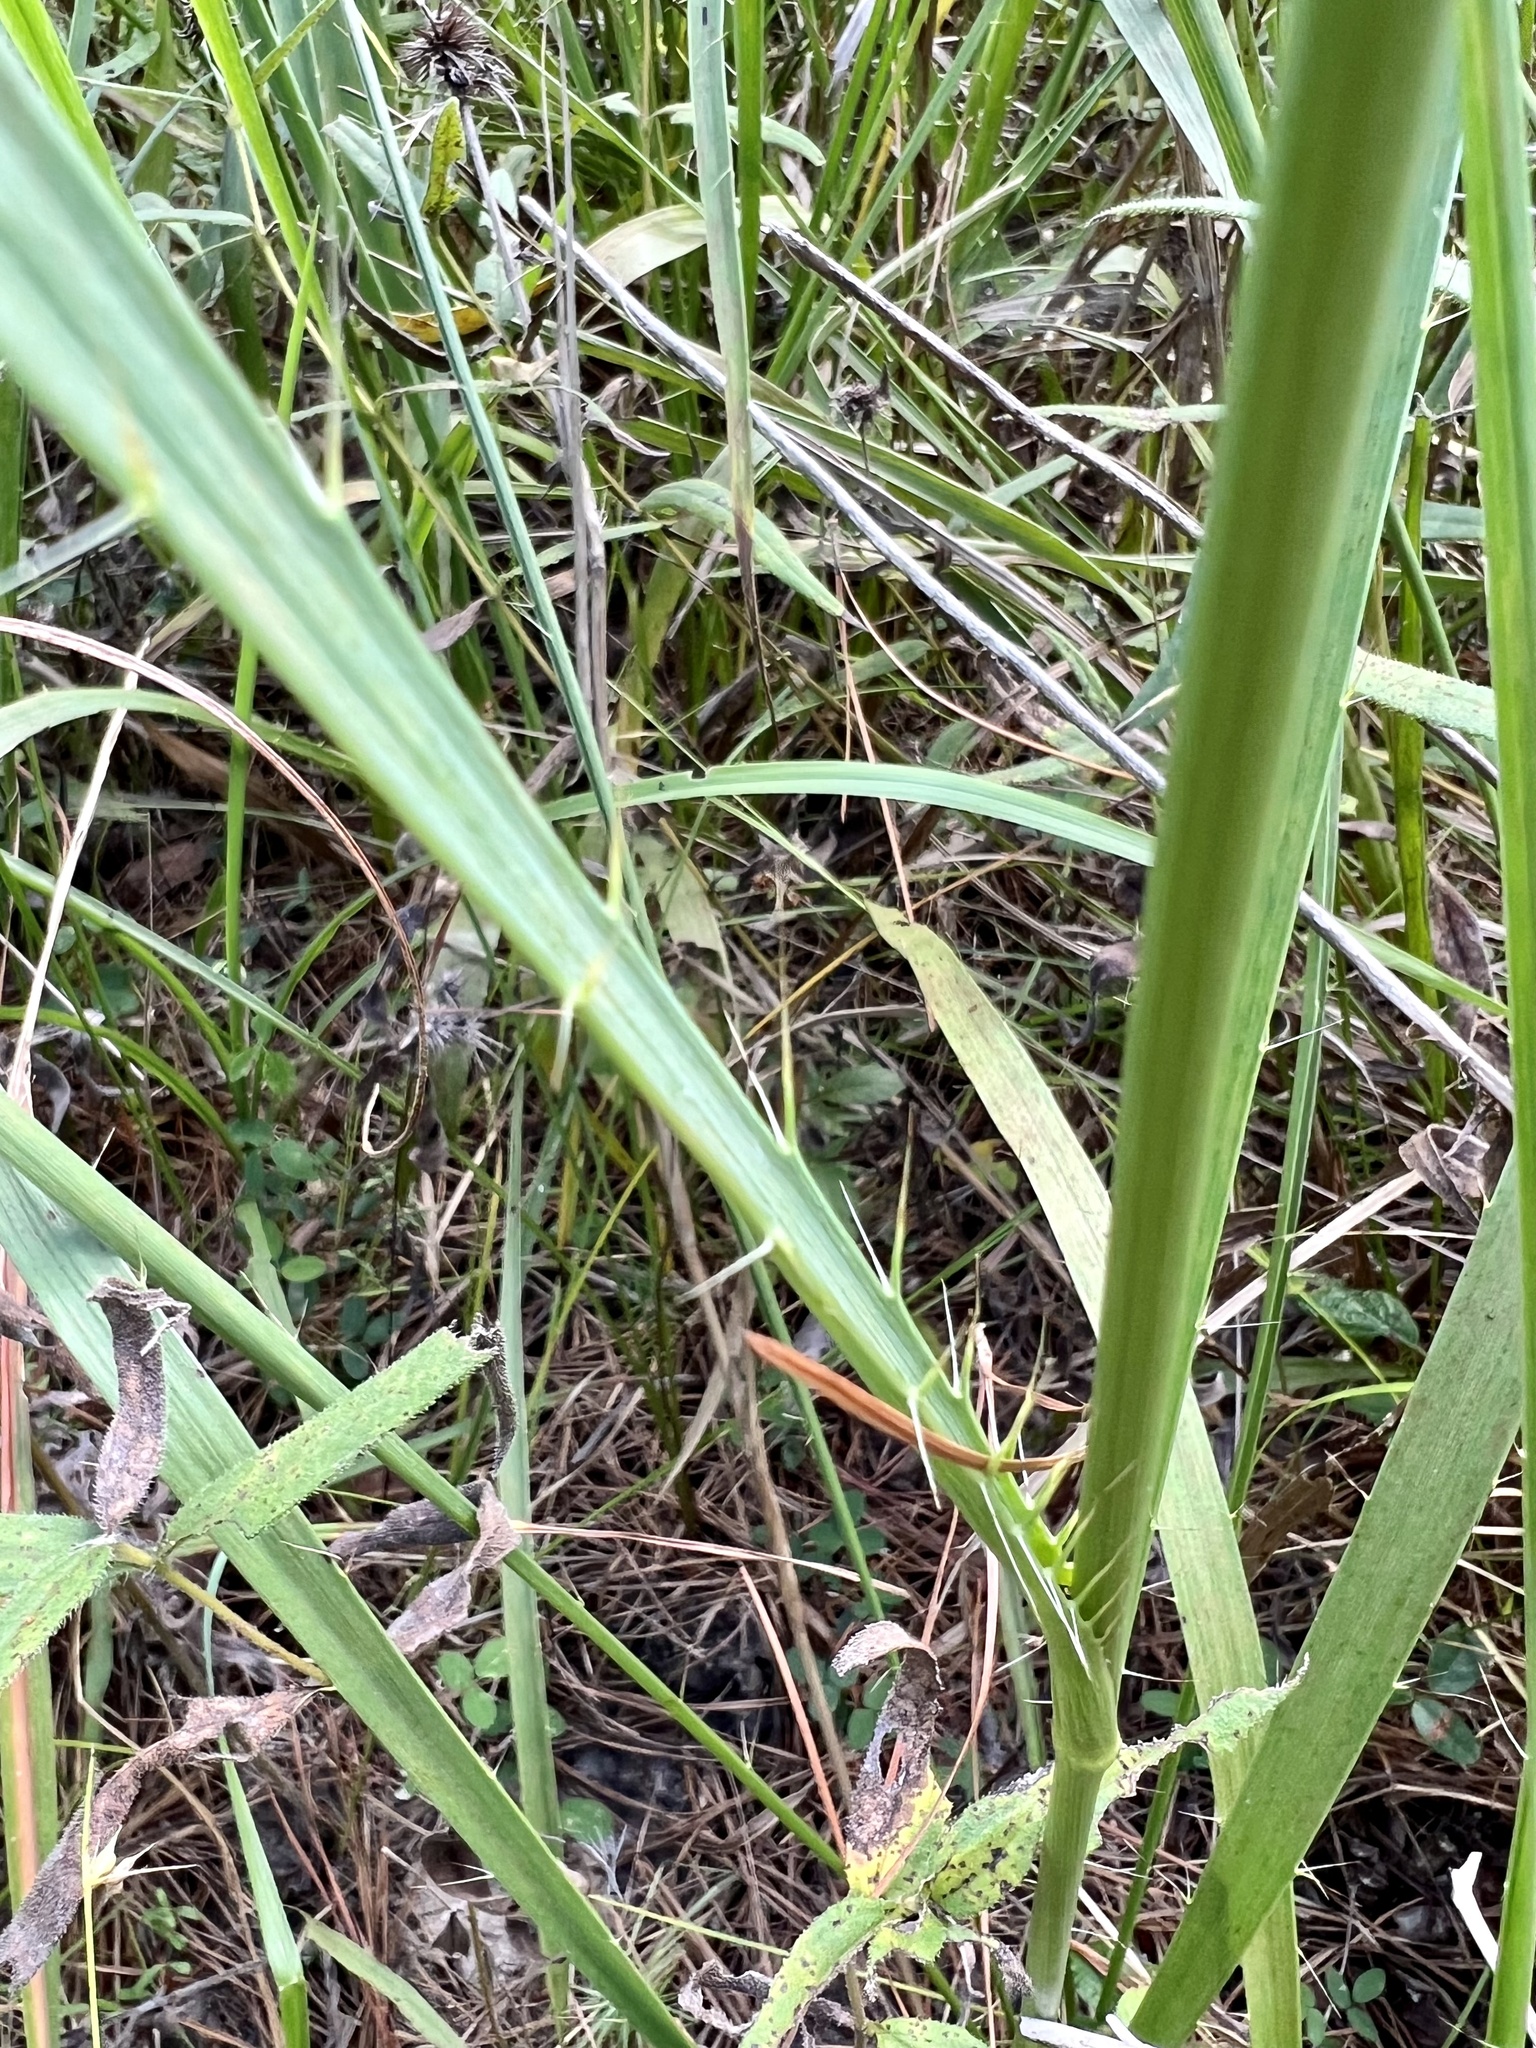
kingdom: Plantae
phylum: Tracheophyta
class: Magnoliopsida
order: Apiales
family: Apiaceae
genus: Eryngium
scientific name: Eryngium yuccifolium
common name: Button eryngo
